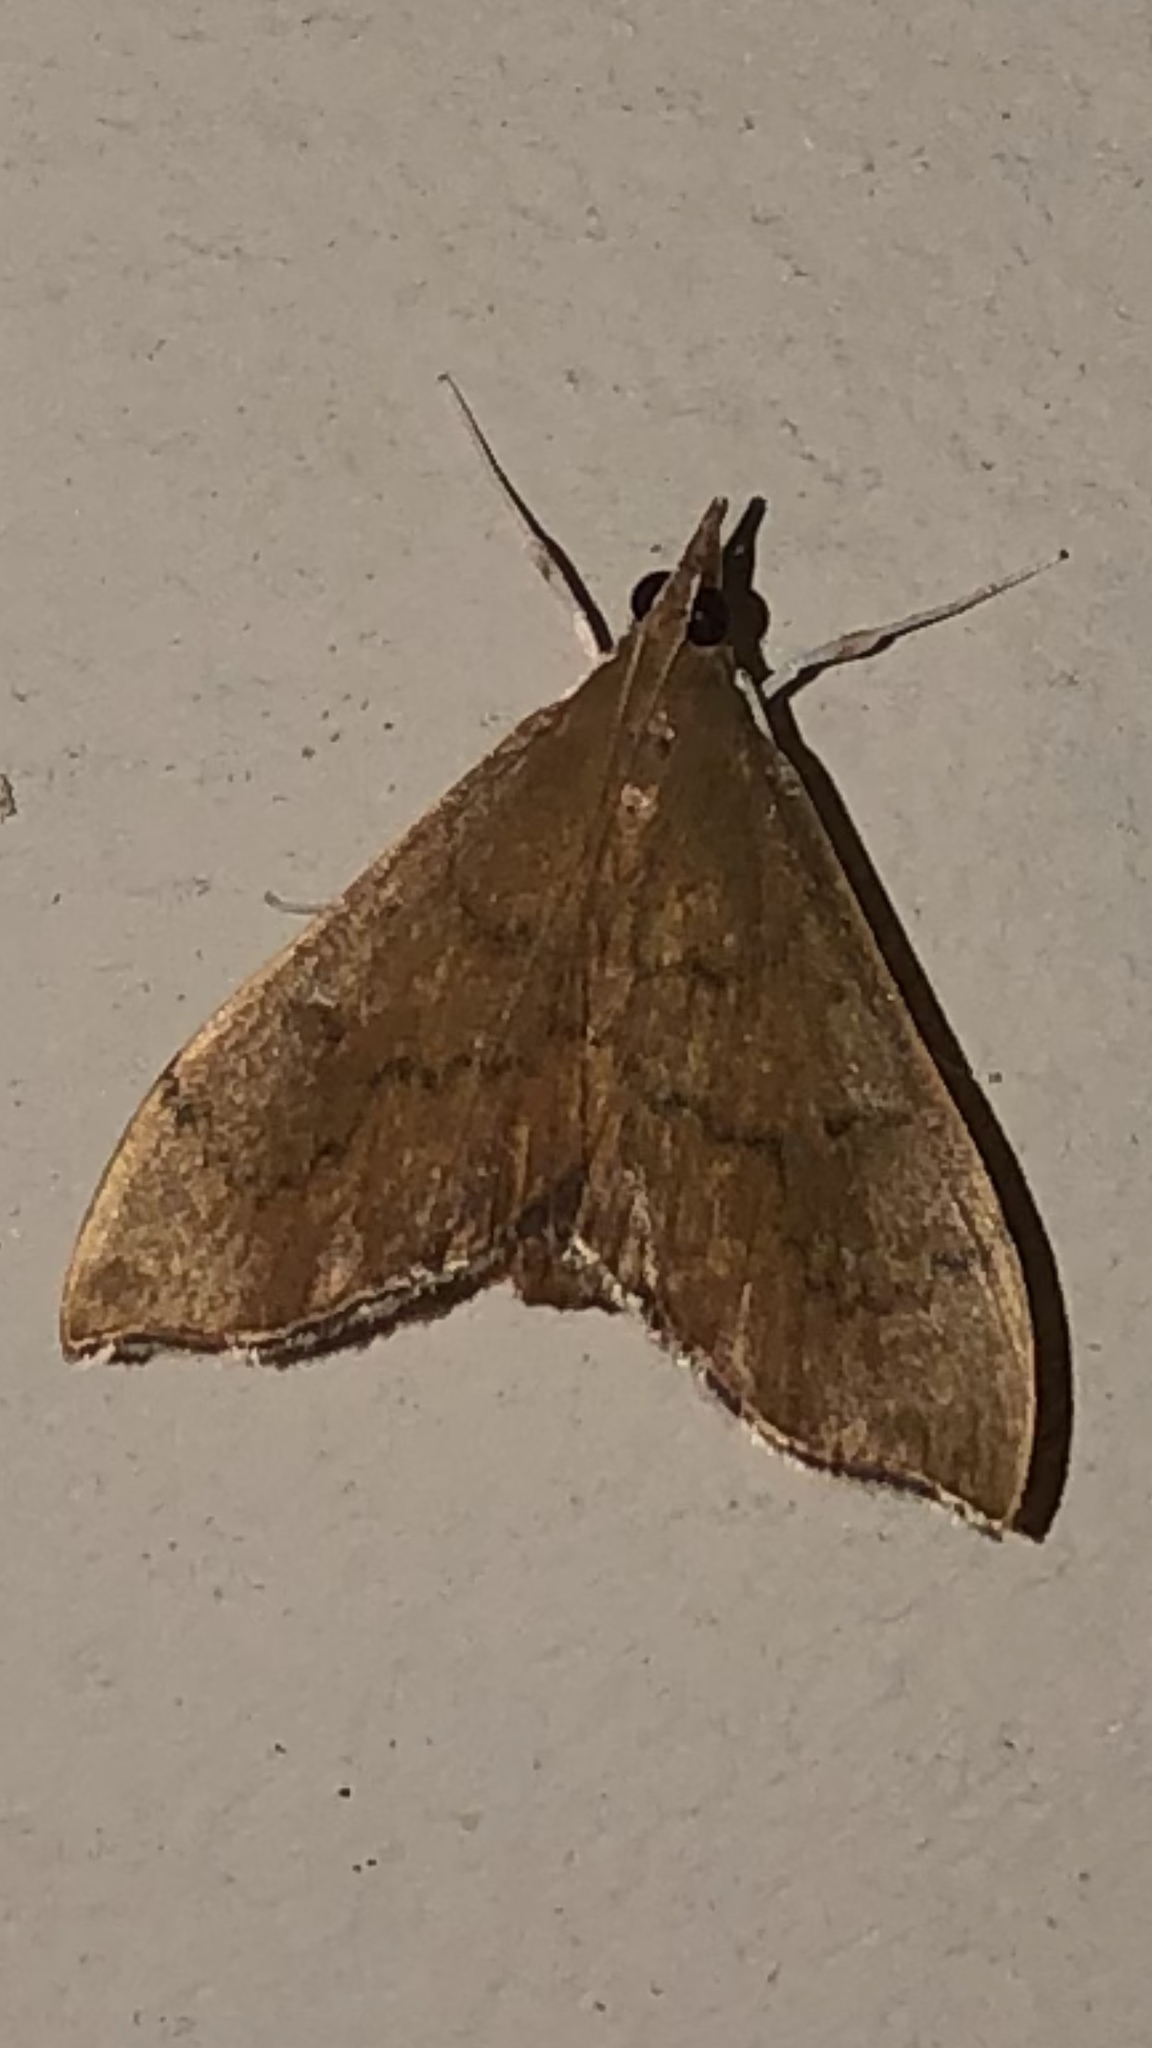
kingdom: Animalia
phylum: Arthropoda
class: Insecta
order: Lepidoptera
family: Crambidae
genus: Sericoplaga
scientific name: Sericoplaga externalis
